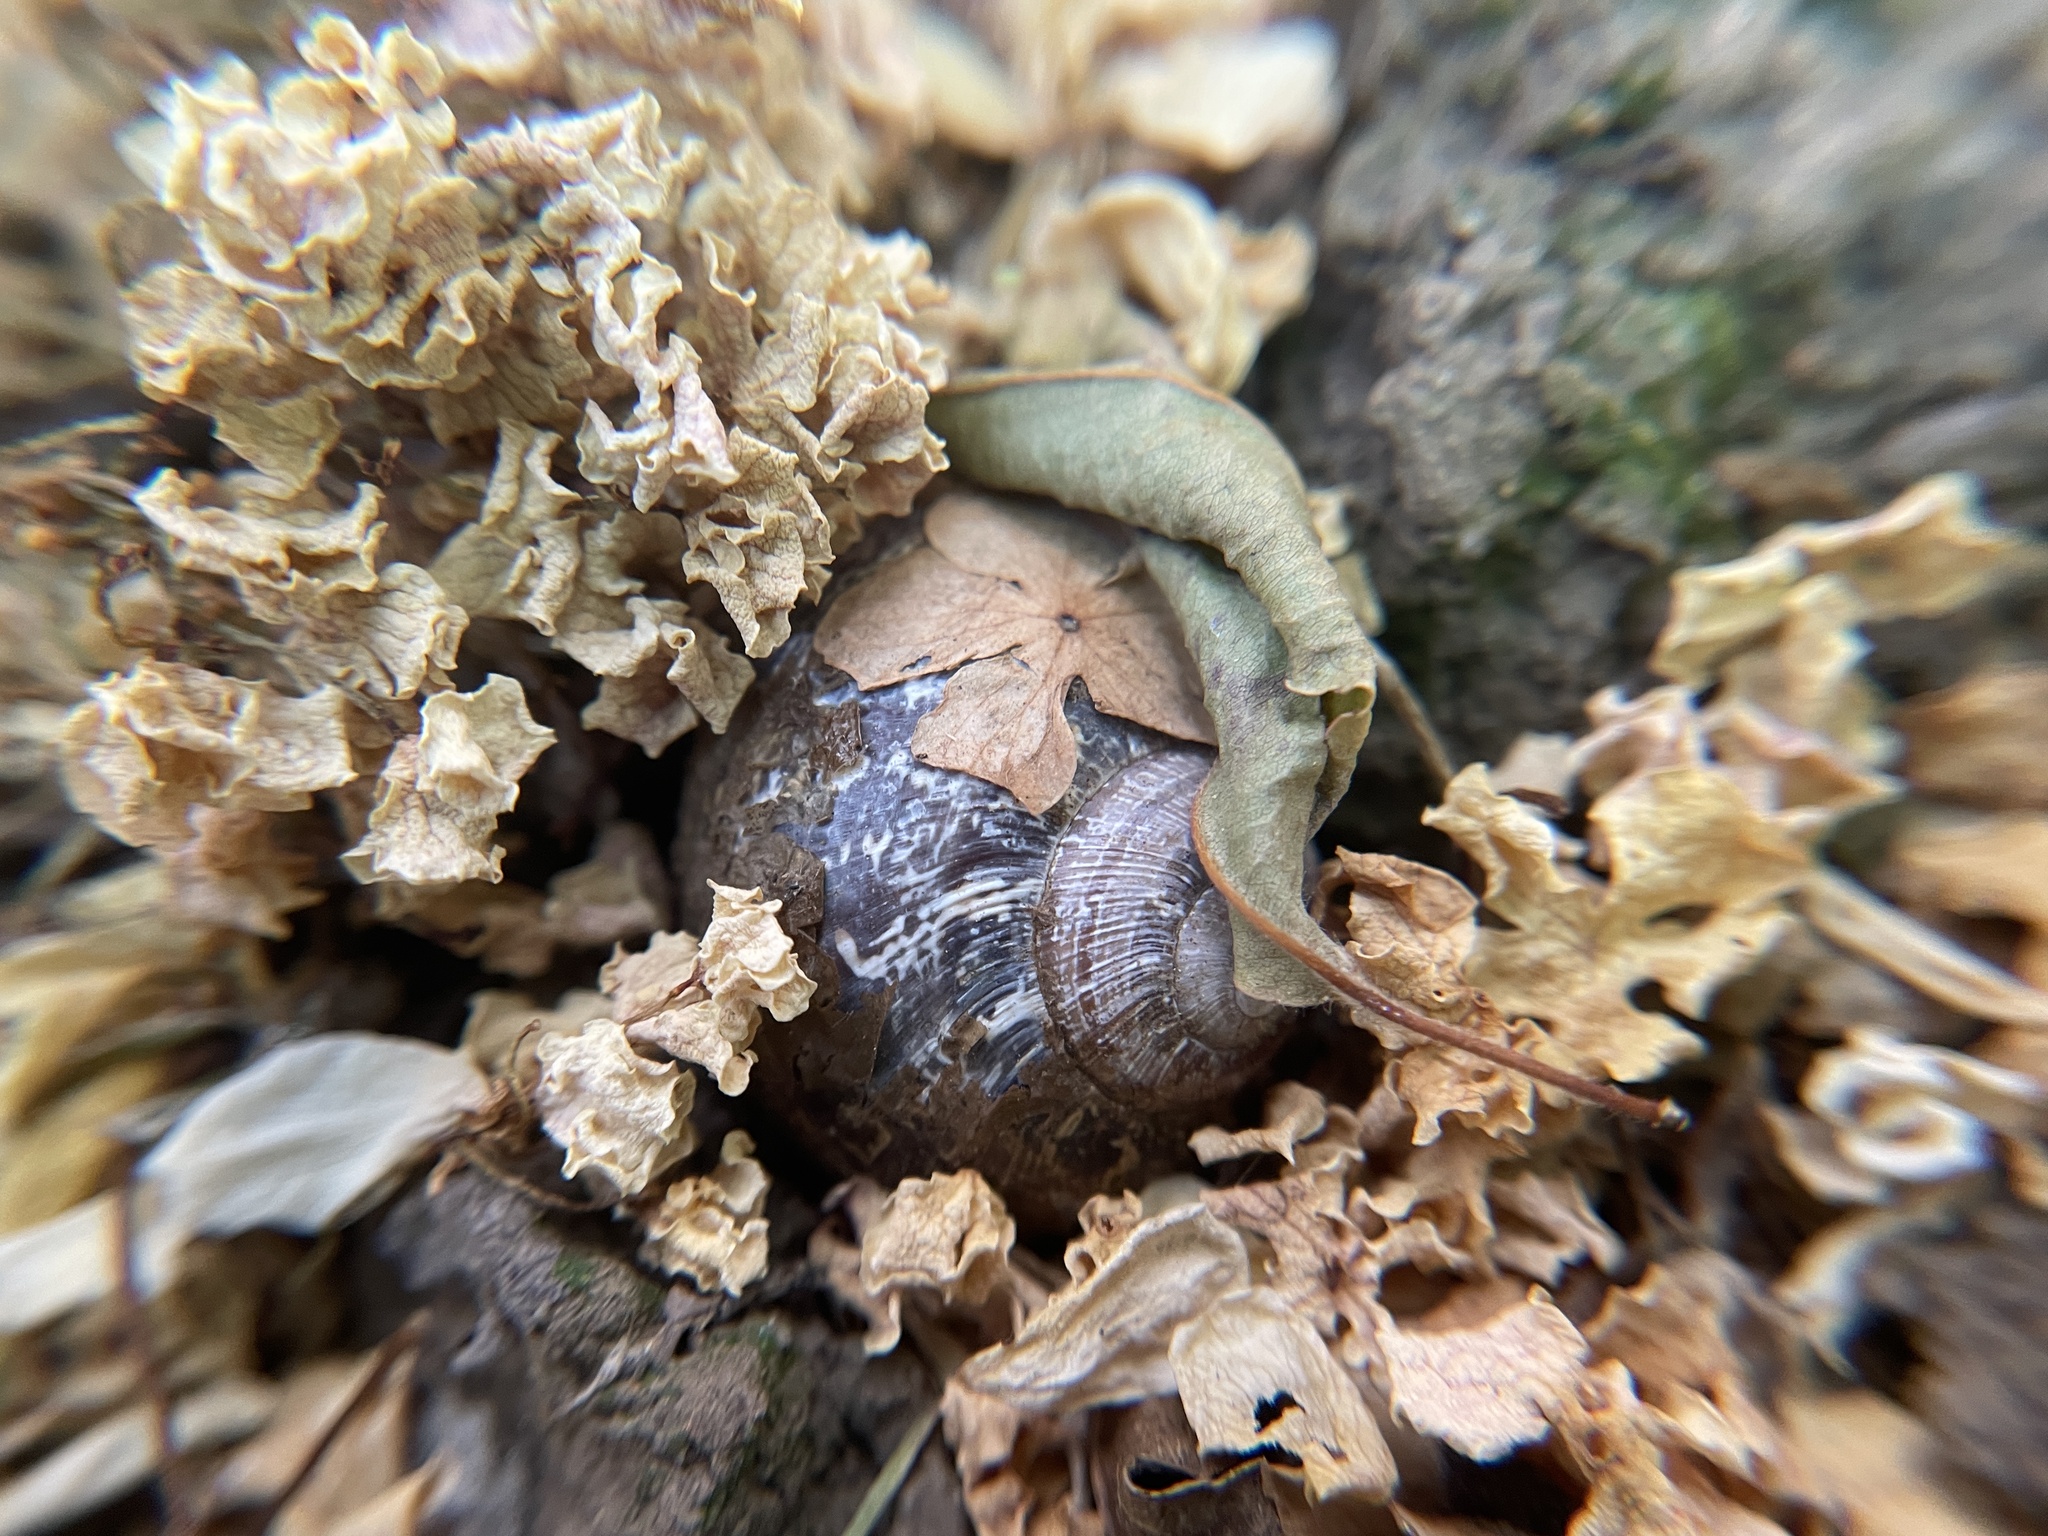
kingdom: Animalia
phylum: Mollusca
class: Gastropoda
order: Stylommatophora
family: Helicidae
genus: Cornu
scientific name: Cornu aspersum
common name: Brown garden snail
